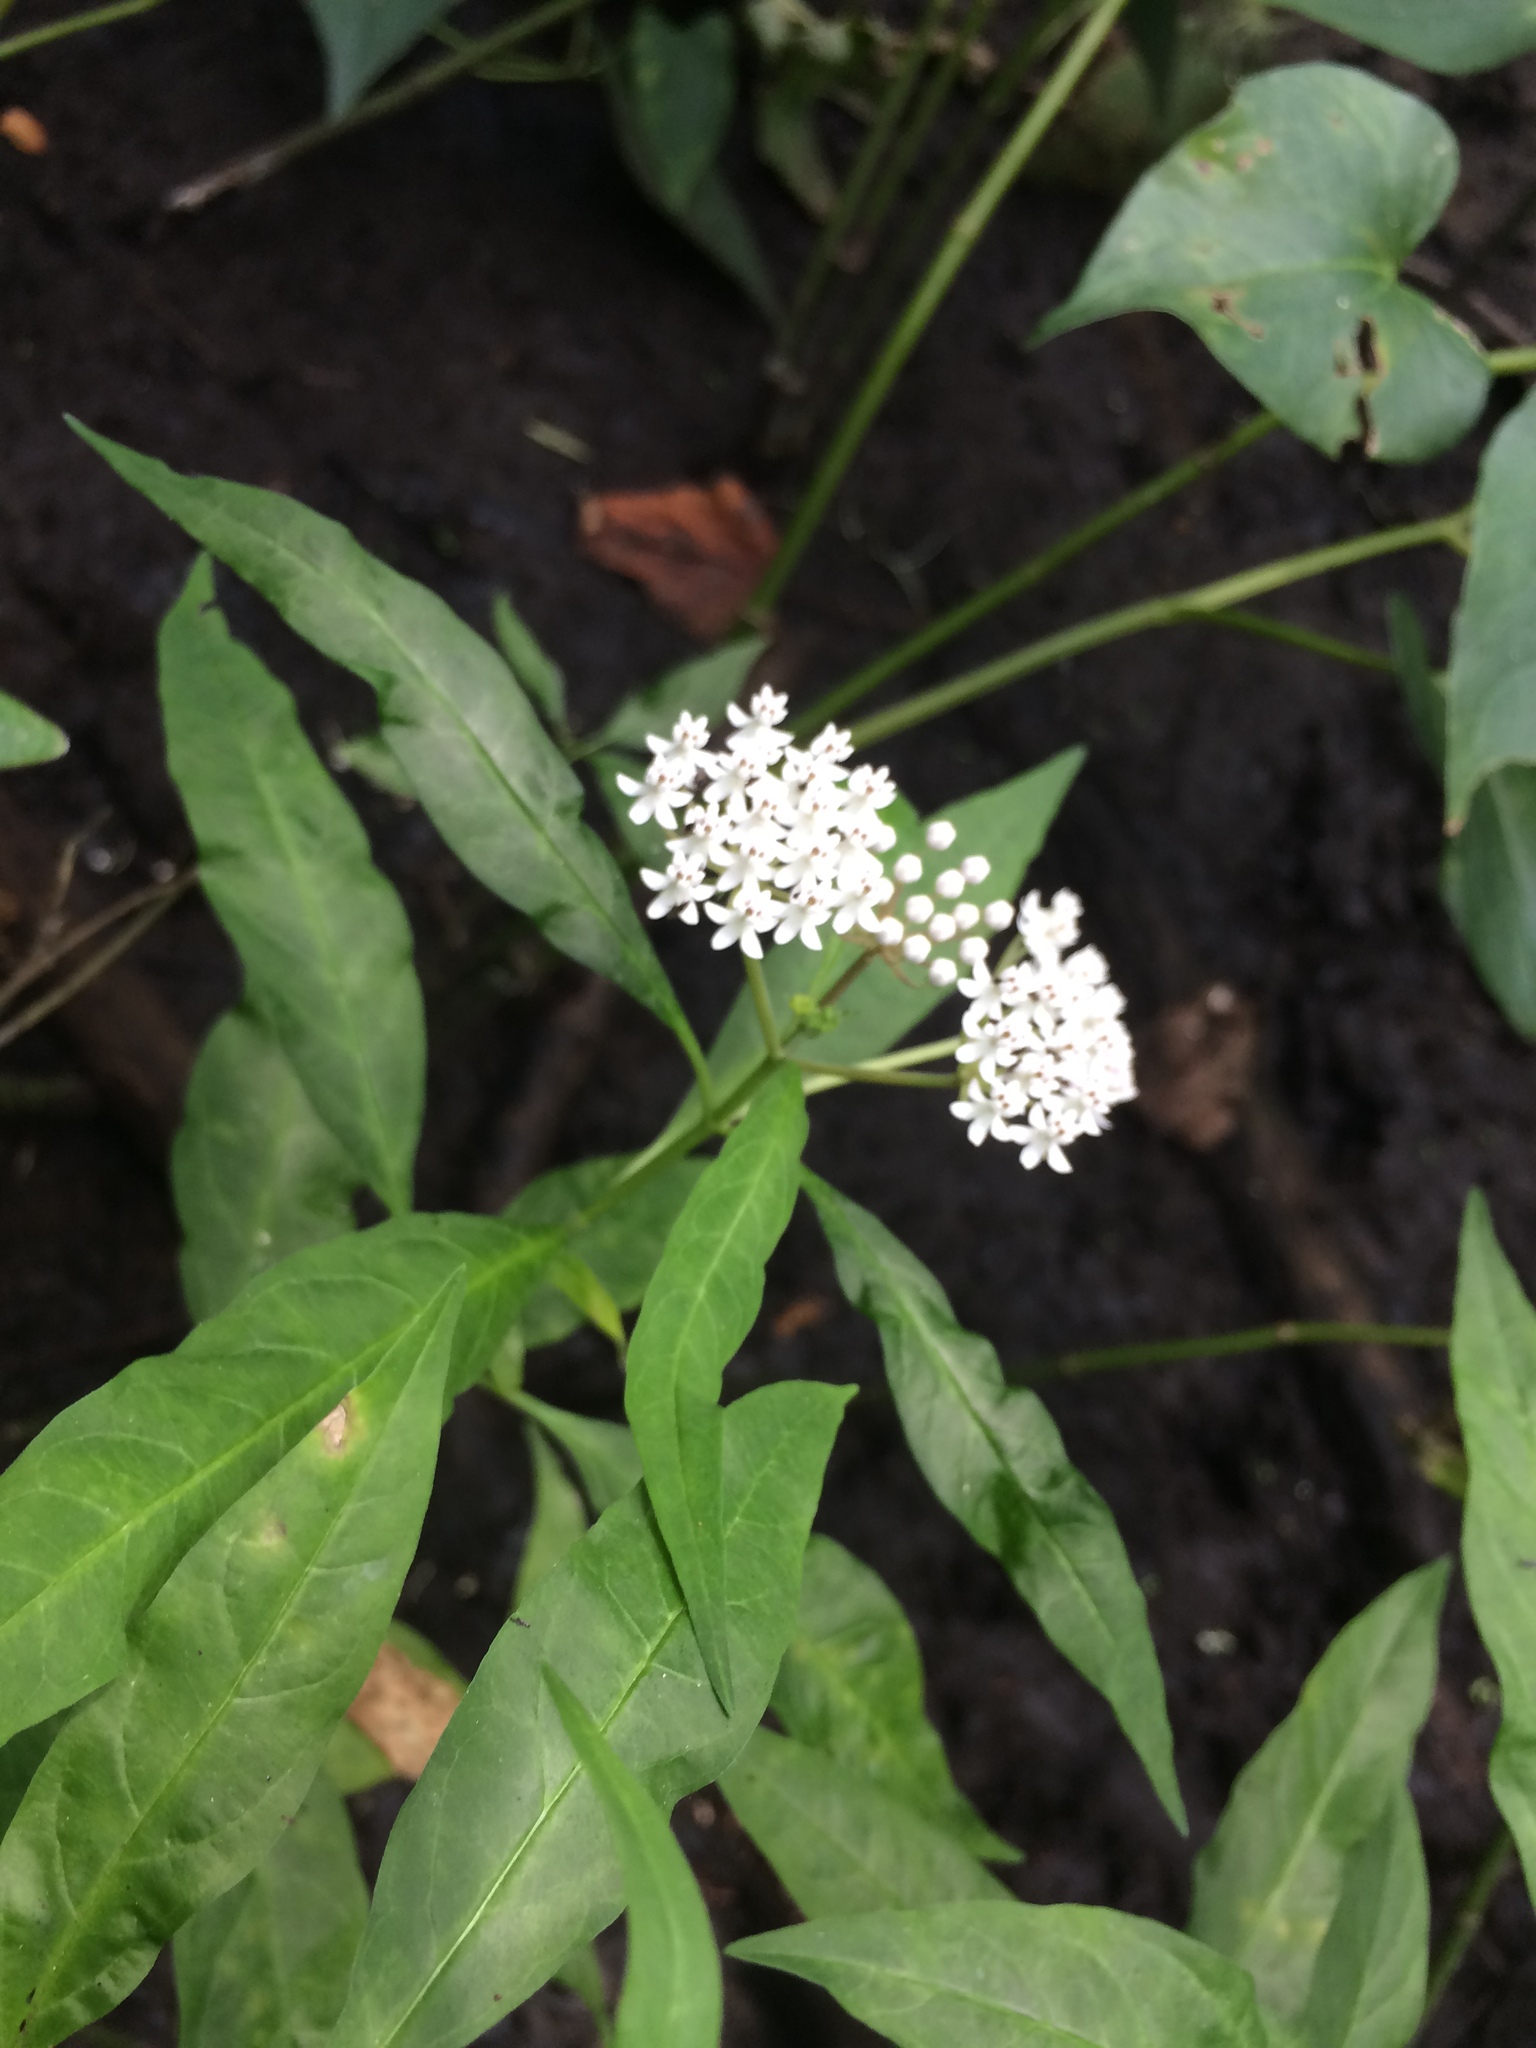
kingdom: Plantae
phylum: Tracheophyta
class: Magnoliopsida
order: Gentianales
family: Apocynaceae
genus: Asclepias
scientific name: Asclepias perennis
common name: Smooth-seed milkweed
